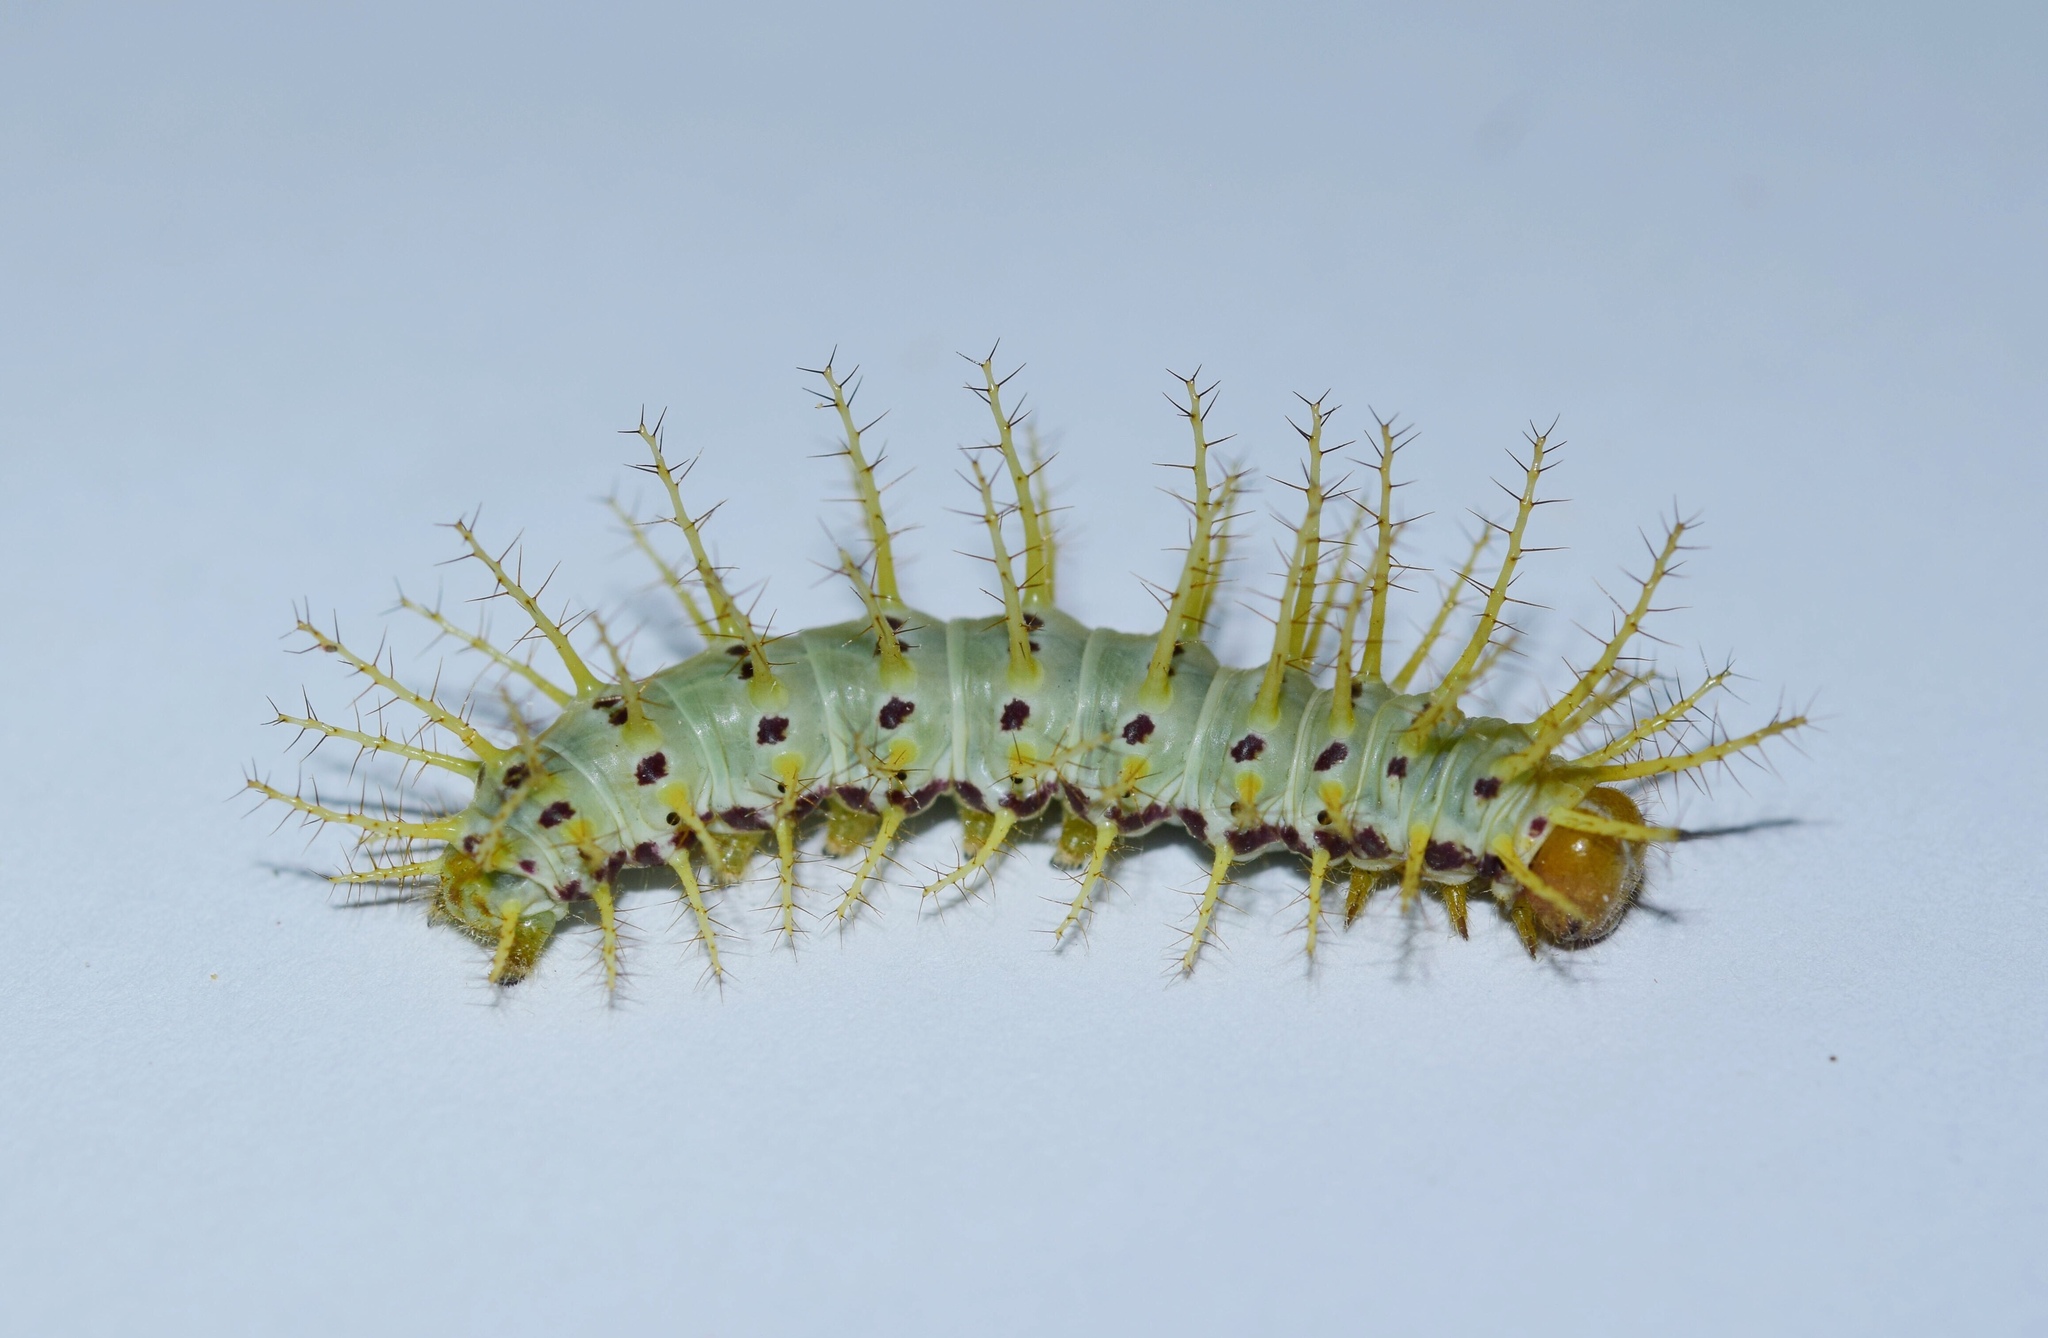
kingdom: Animalia
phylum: Arthropoda
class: Insecta
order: Lepidoptera
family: Nymphalidae
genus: Acraea
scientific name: Acraea Bematistes aganice
